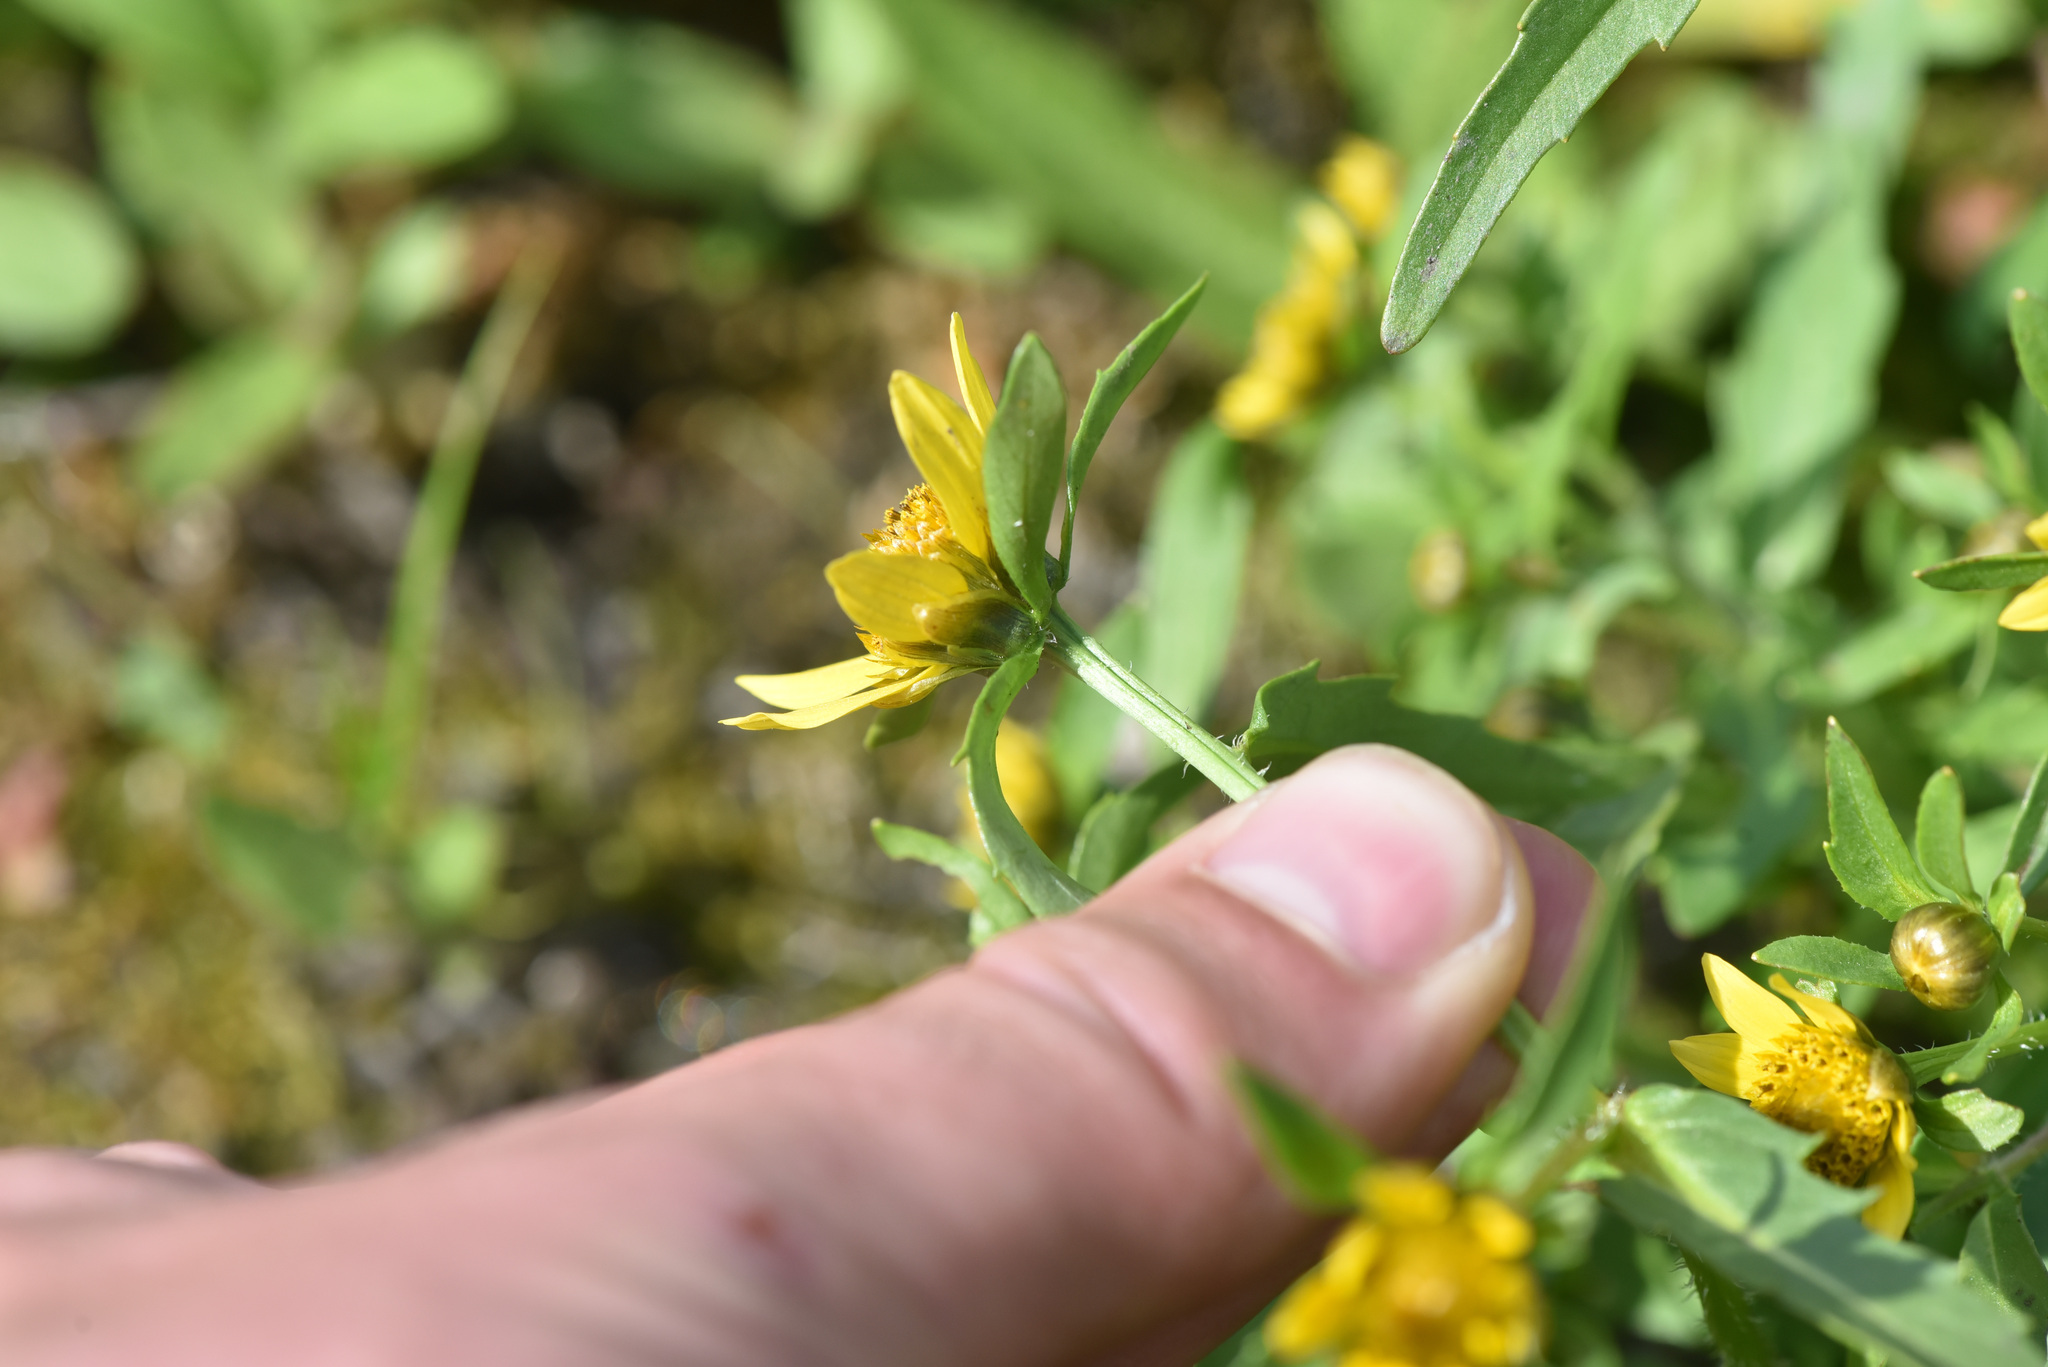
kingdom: Plantae
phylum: Tracheophyta
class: Magnoliopsida
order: Asterales
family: Asteraceae
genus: Bidens
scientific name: Bidens cernua
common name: Nodding bur-marigold
